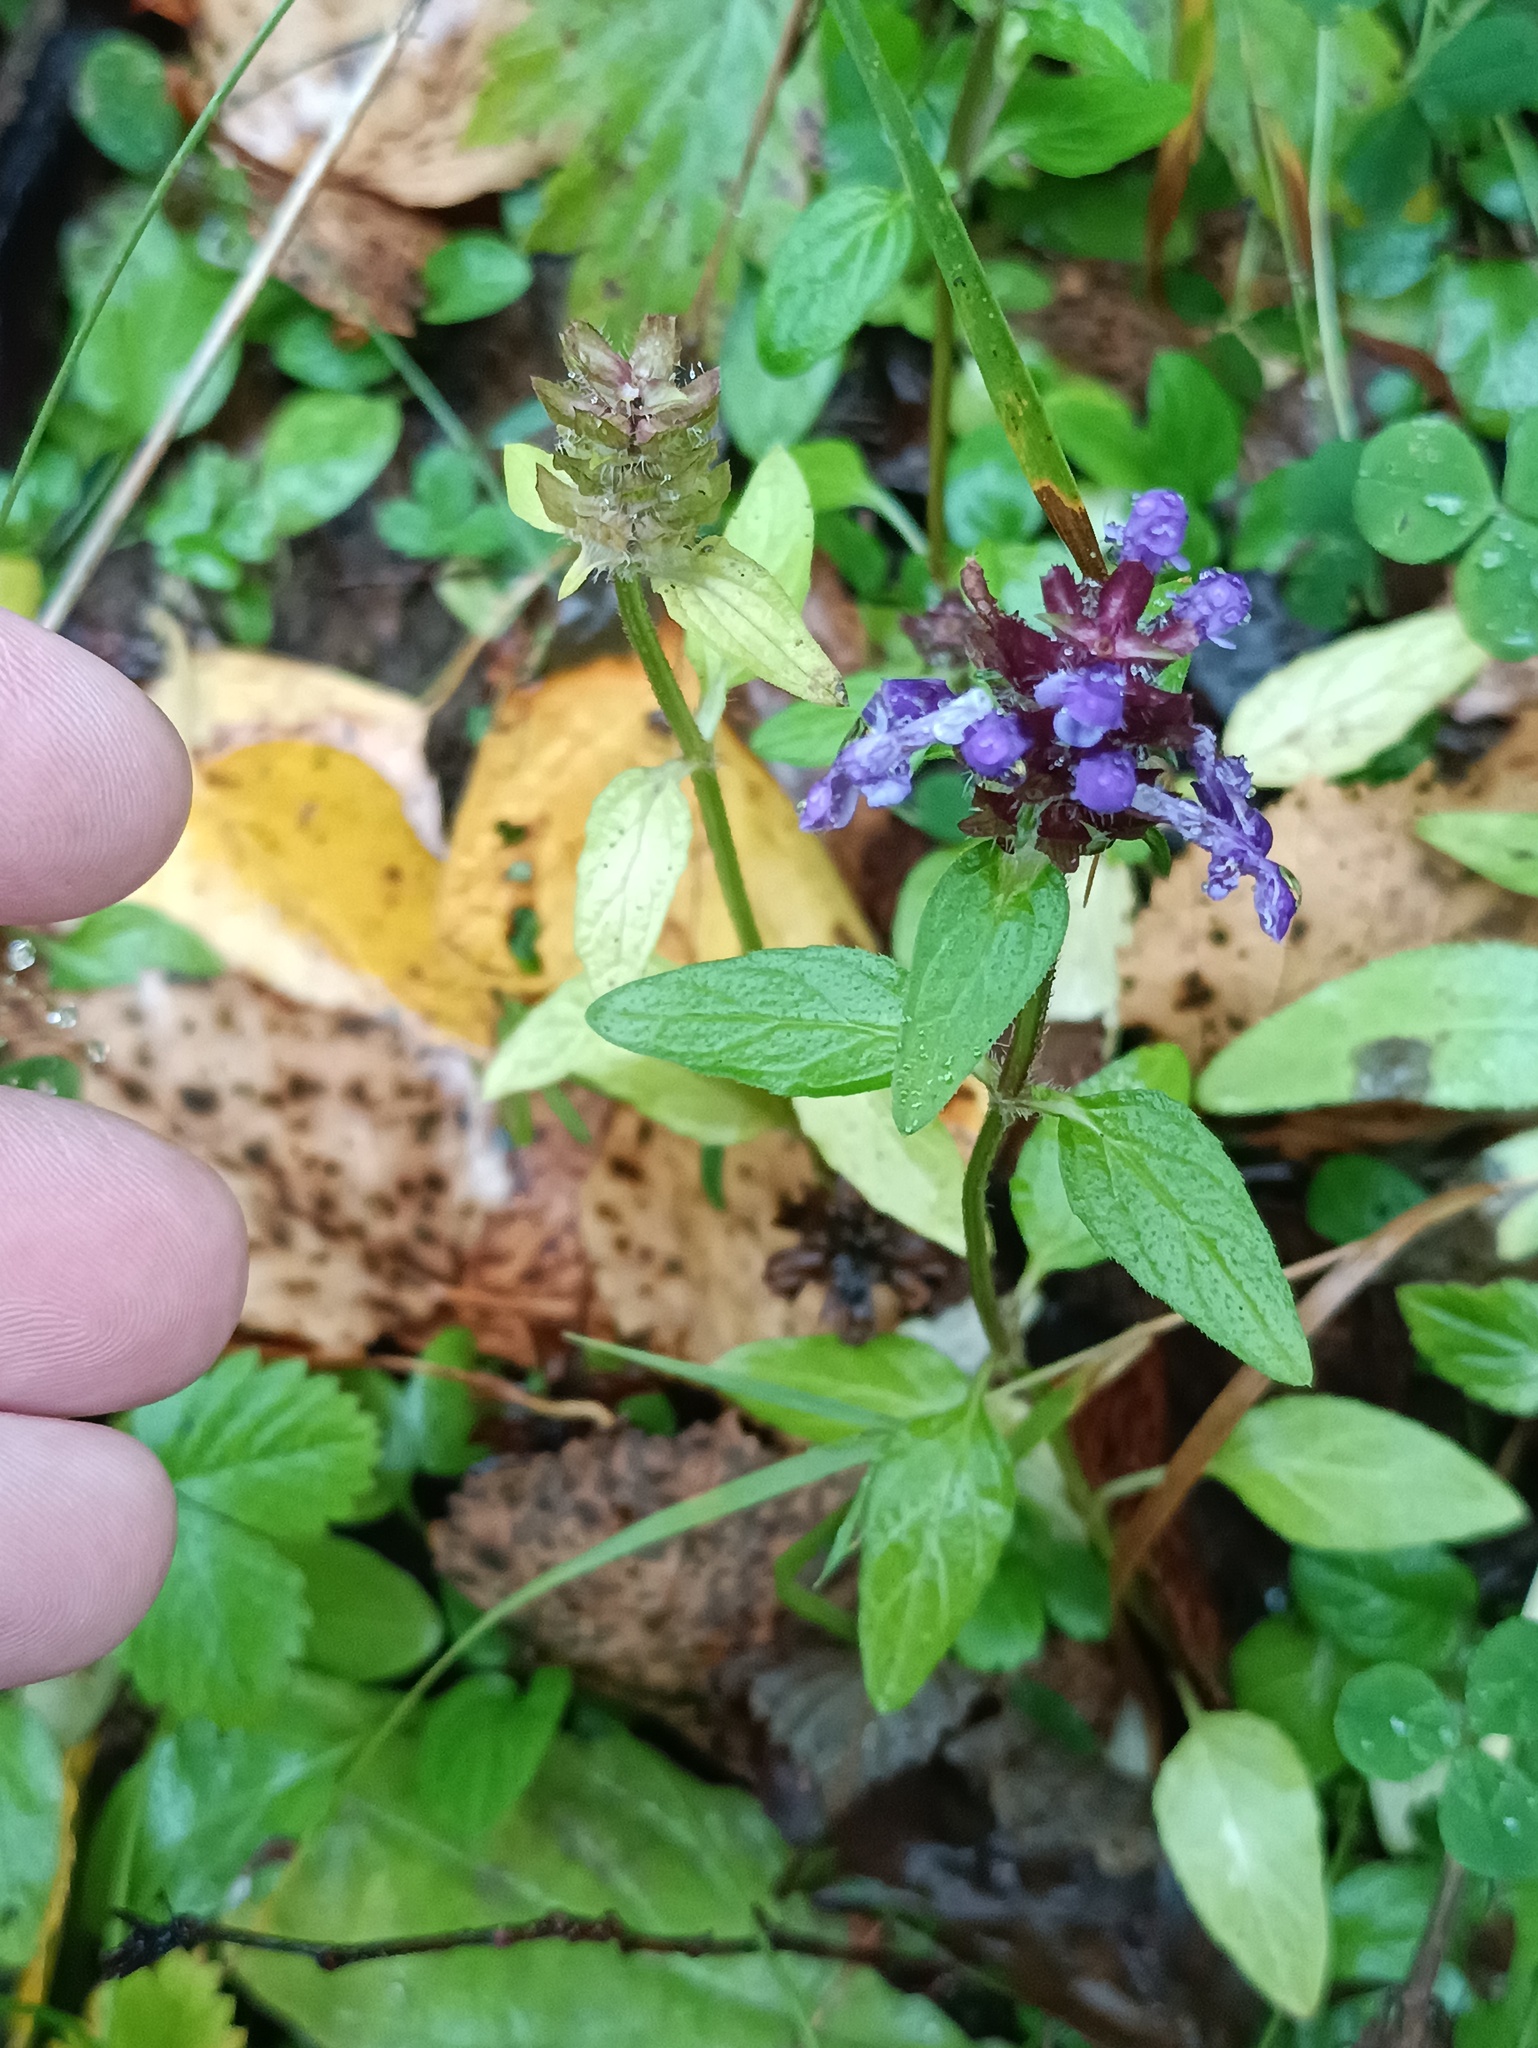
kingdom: Plantae
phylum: Tracheophyta
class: Magnoliopsida
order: Lamiales
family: Lamiaceae
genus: Prunella
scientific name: Prunella vulgaris
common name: Heal-all
